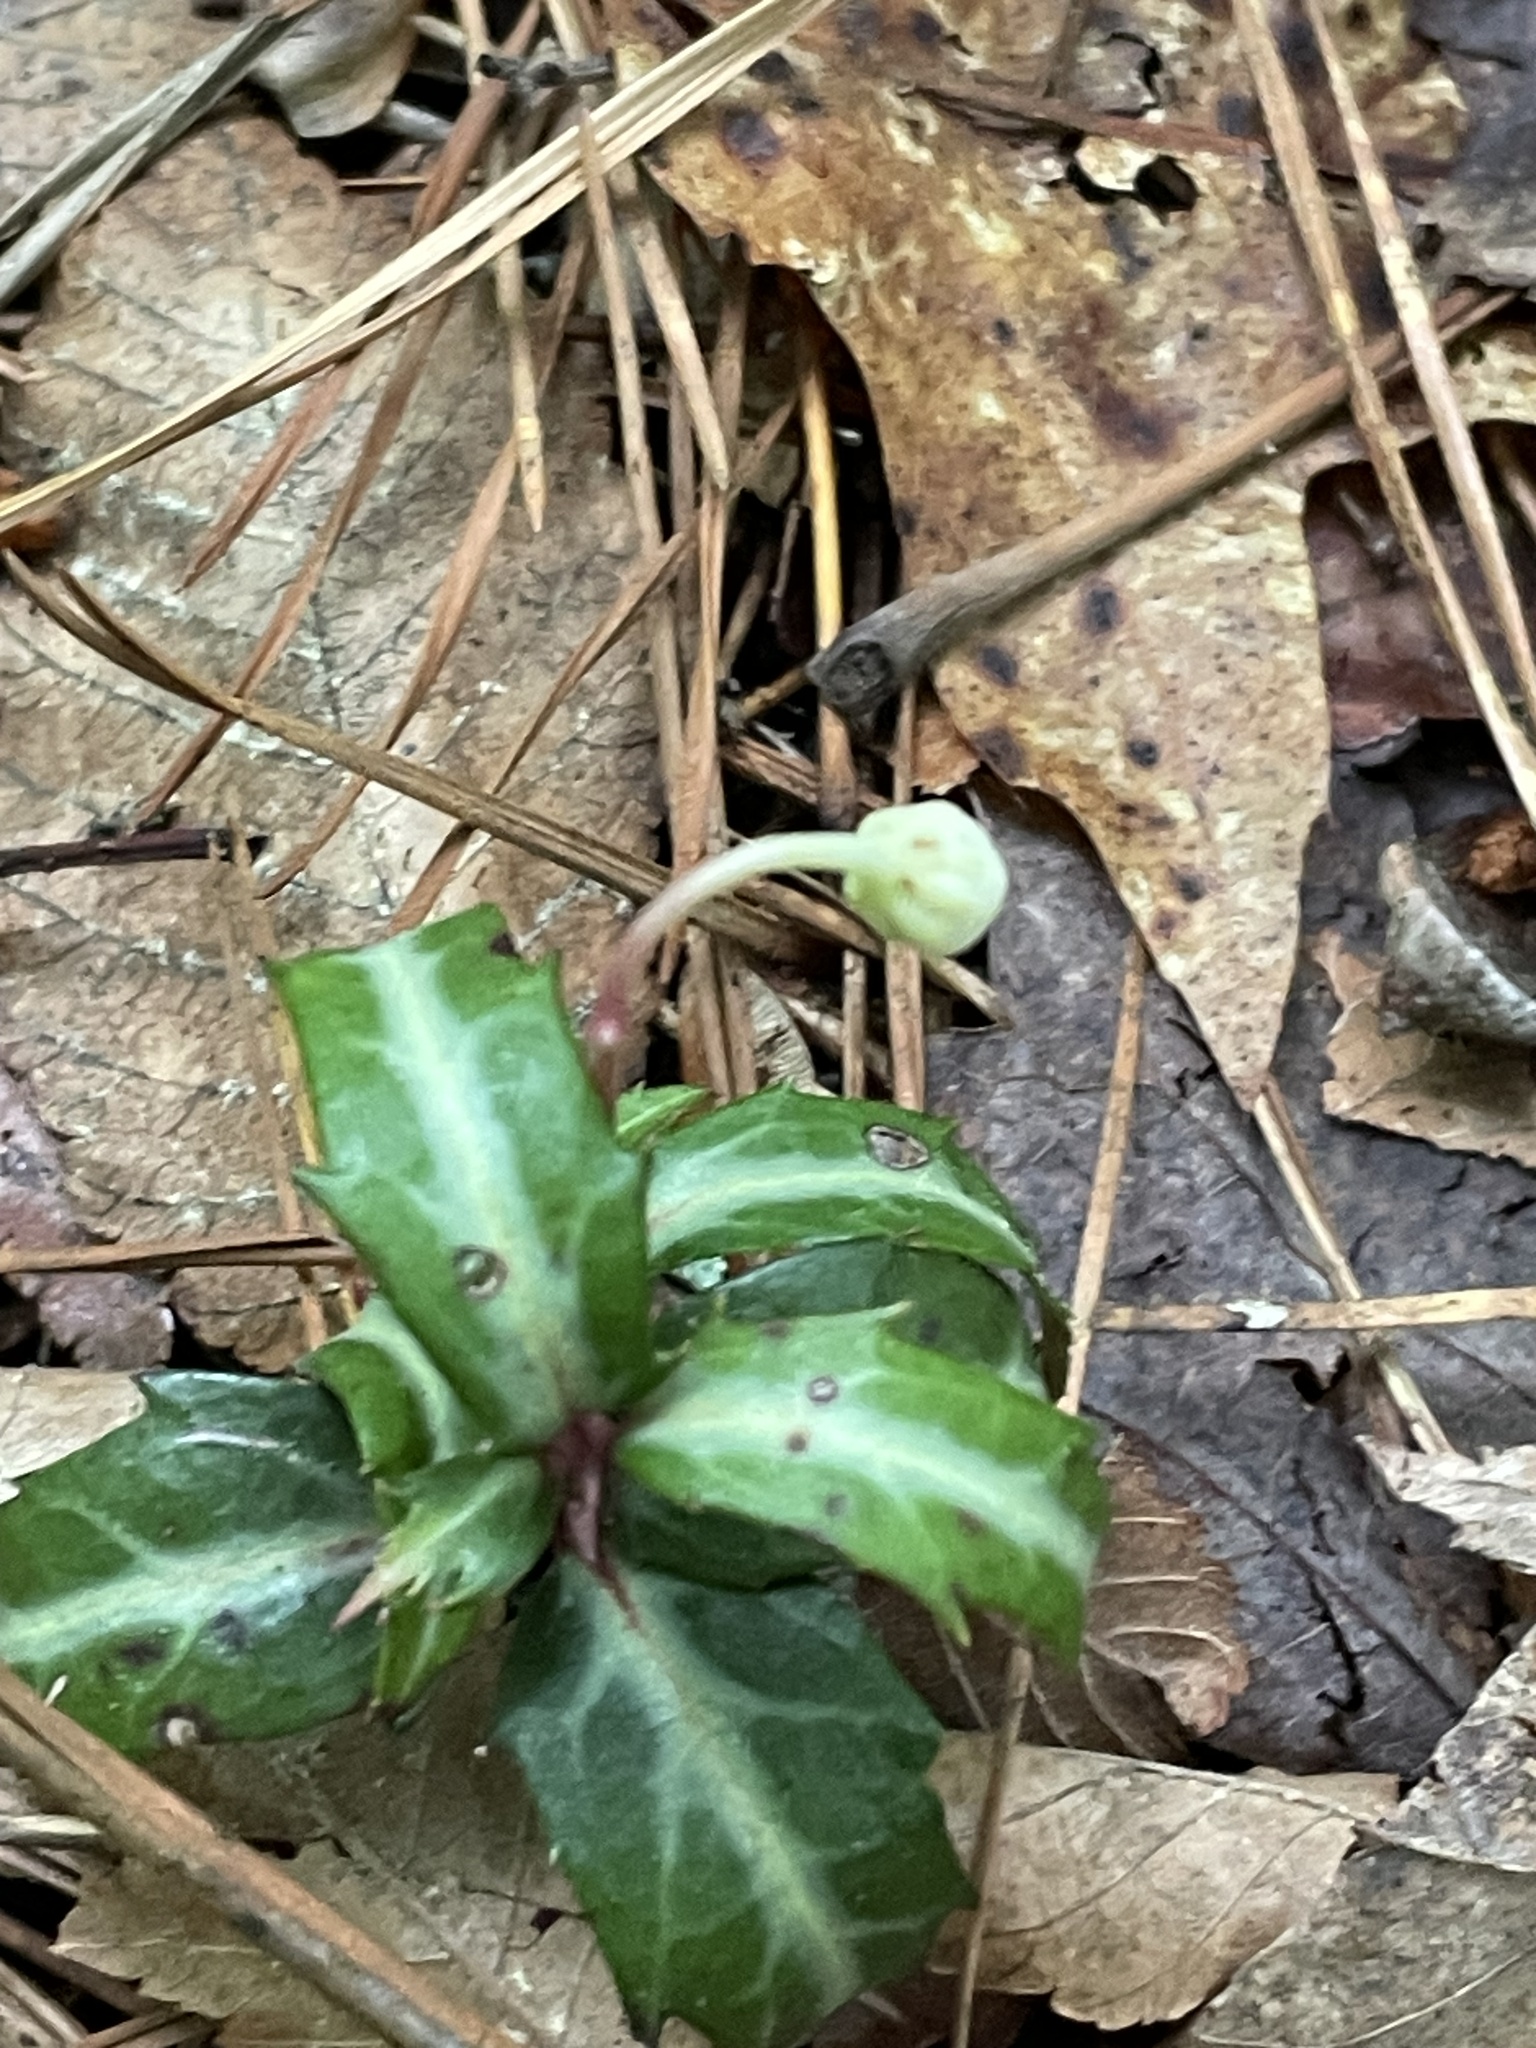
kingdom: Plantae
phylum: Tracheophyta
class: Magnoliopsida
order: Ericales
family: Ericaceae
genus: Chimaphila
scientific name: Chimaphila maculata
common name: Spotted pipsissewa
